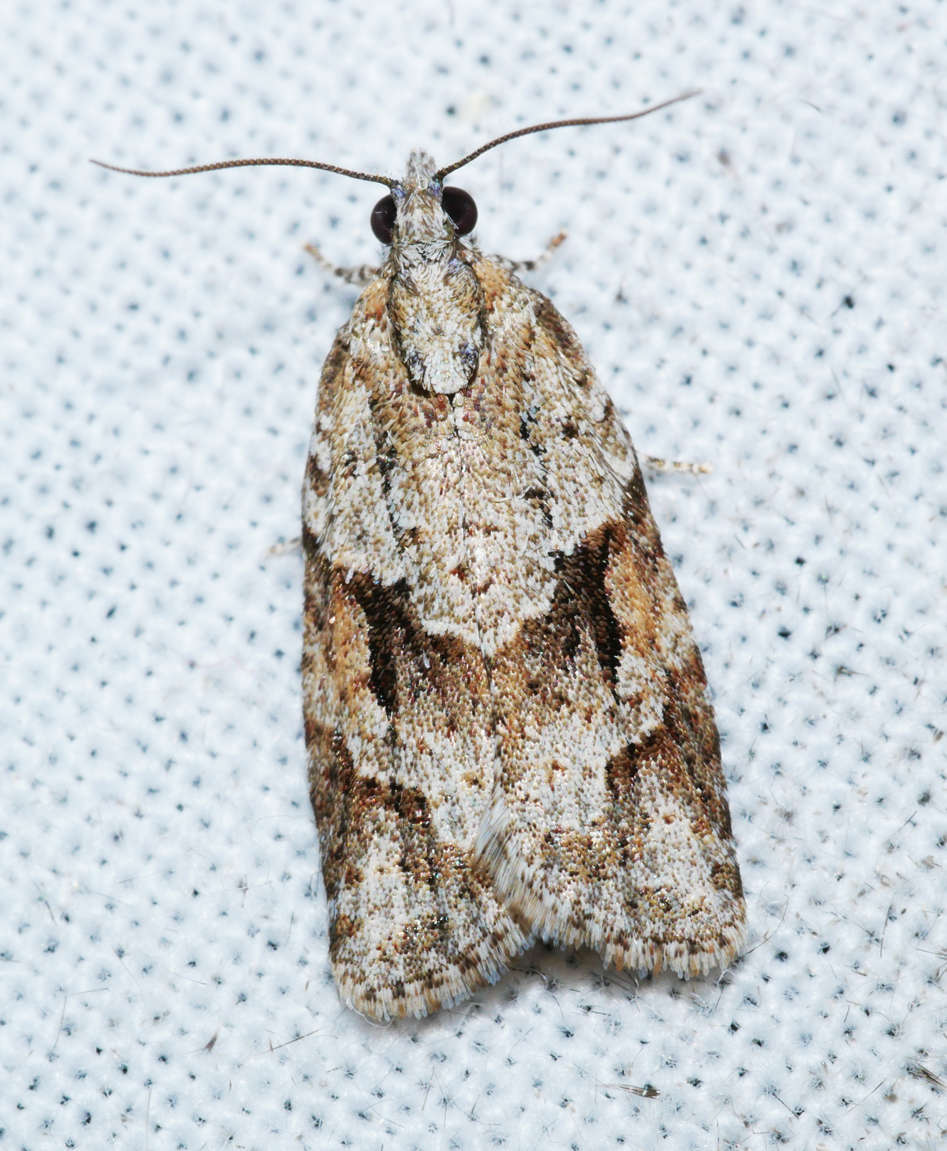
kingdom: Animalia
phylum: Arthropoda
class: Insecta
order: Lepidoptera
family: Tortricidae
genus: Acropolitis
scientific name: Acropolitis rudisana
